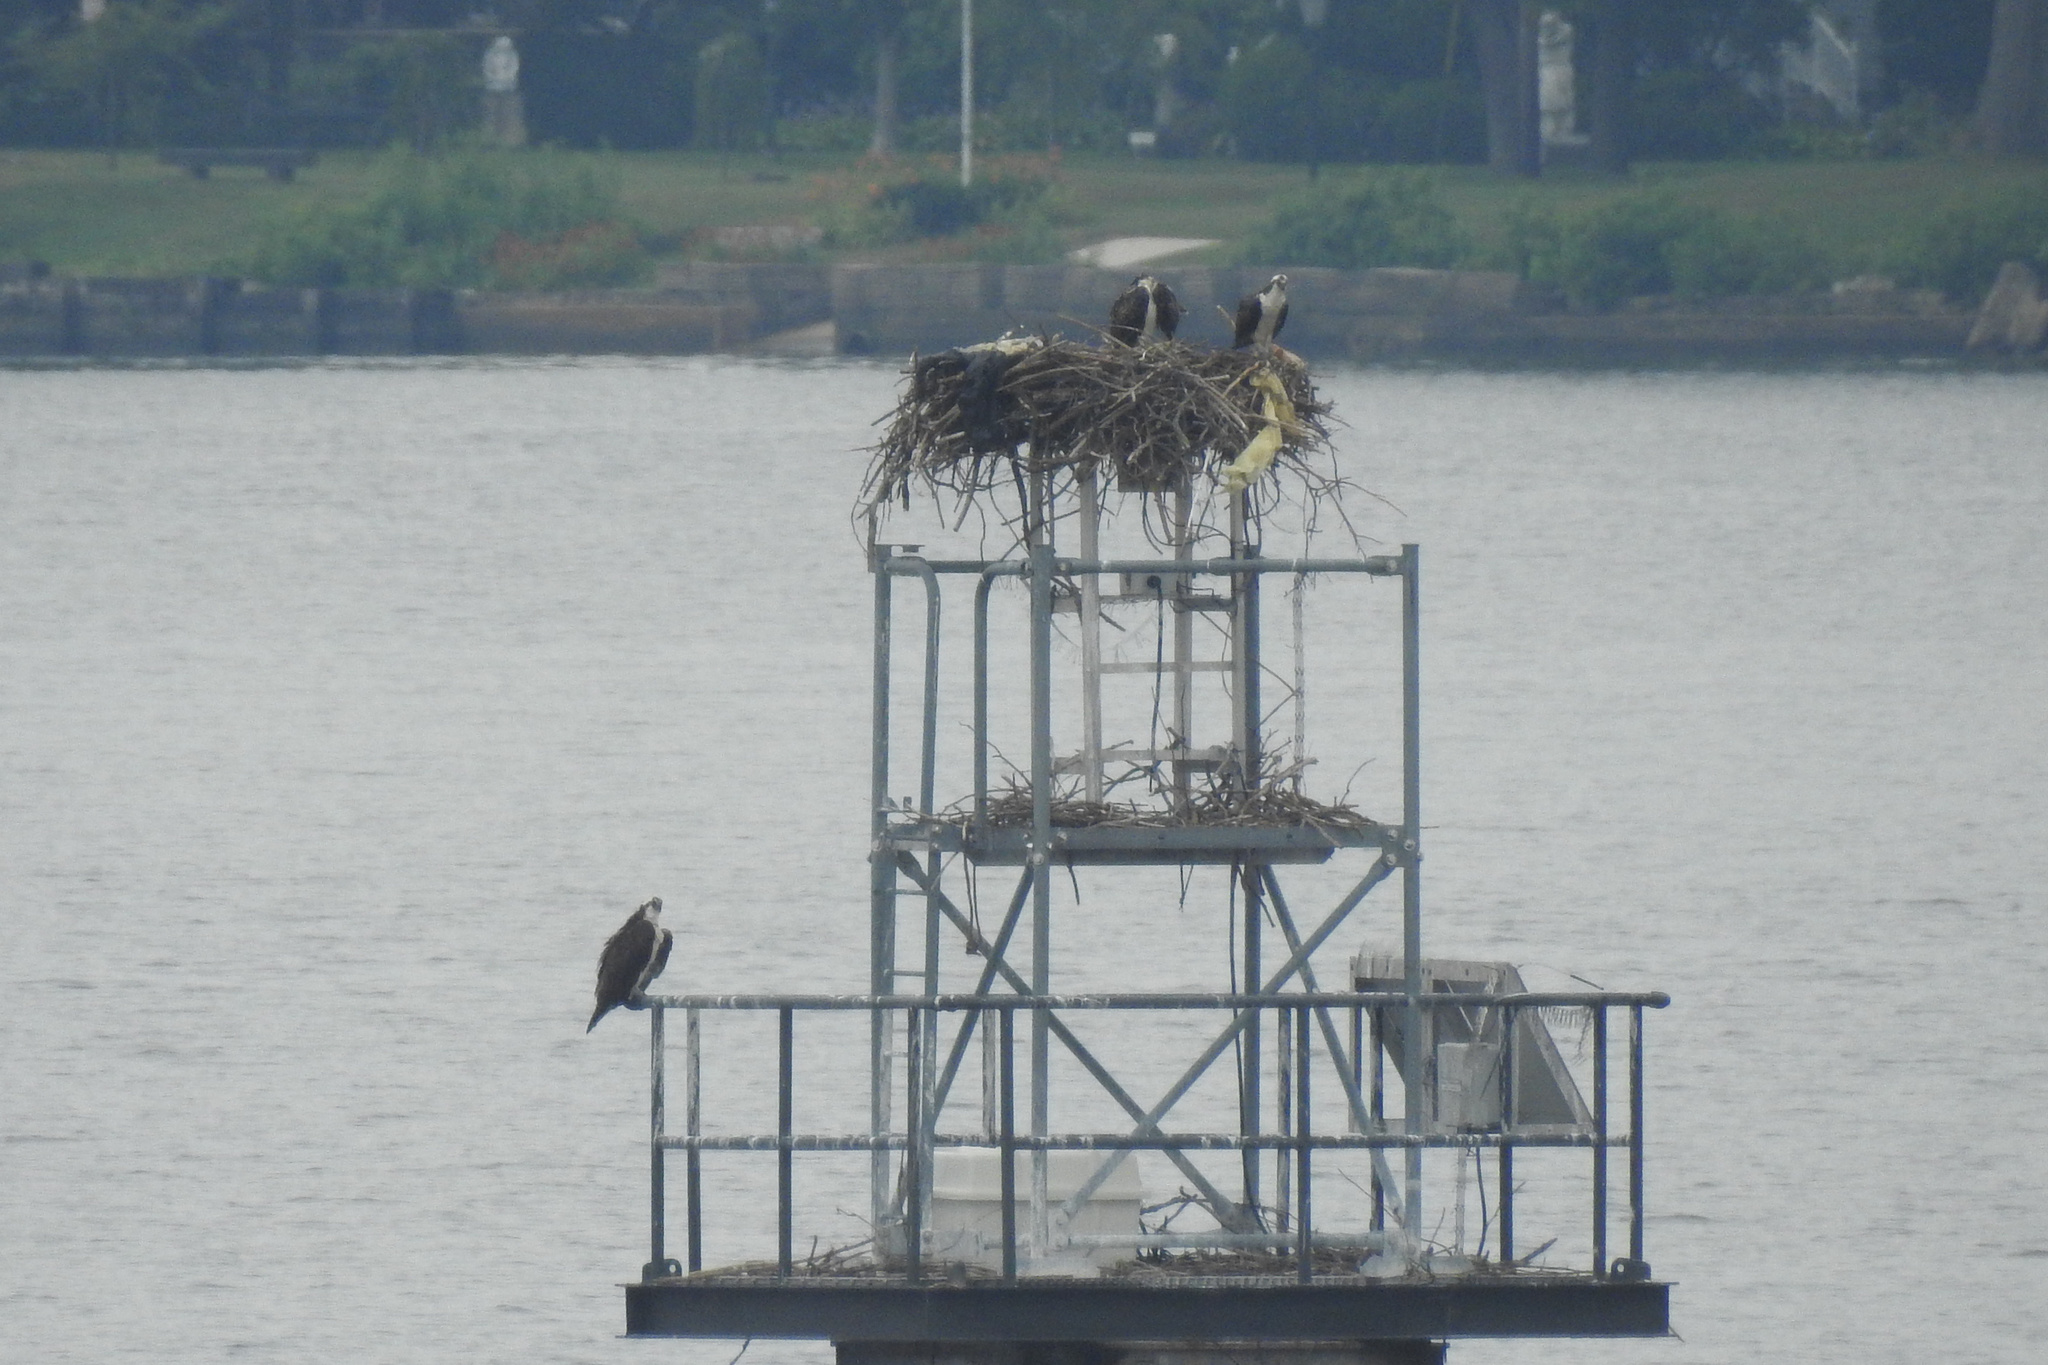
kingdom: Animalia
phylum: Chordata
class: Aves
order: Accipitriformes
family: Pandionidae
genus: Pandion
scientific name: Pandion haliaetus
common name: Osprey
